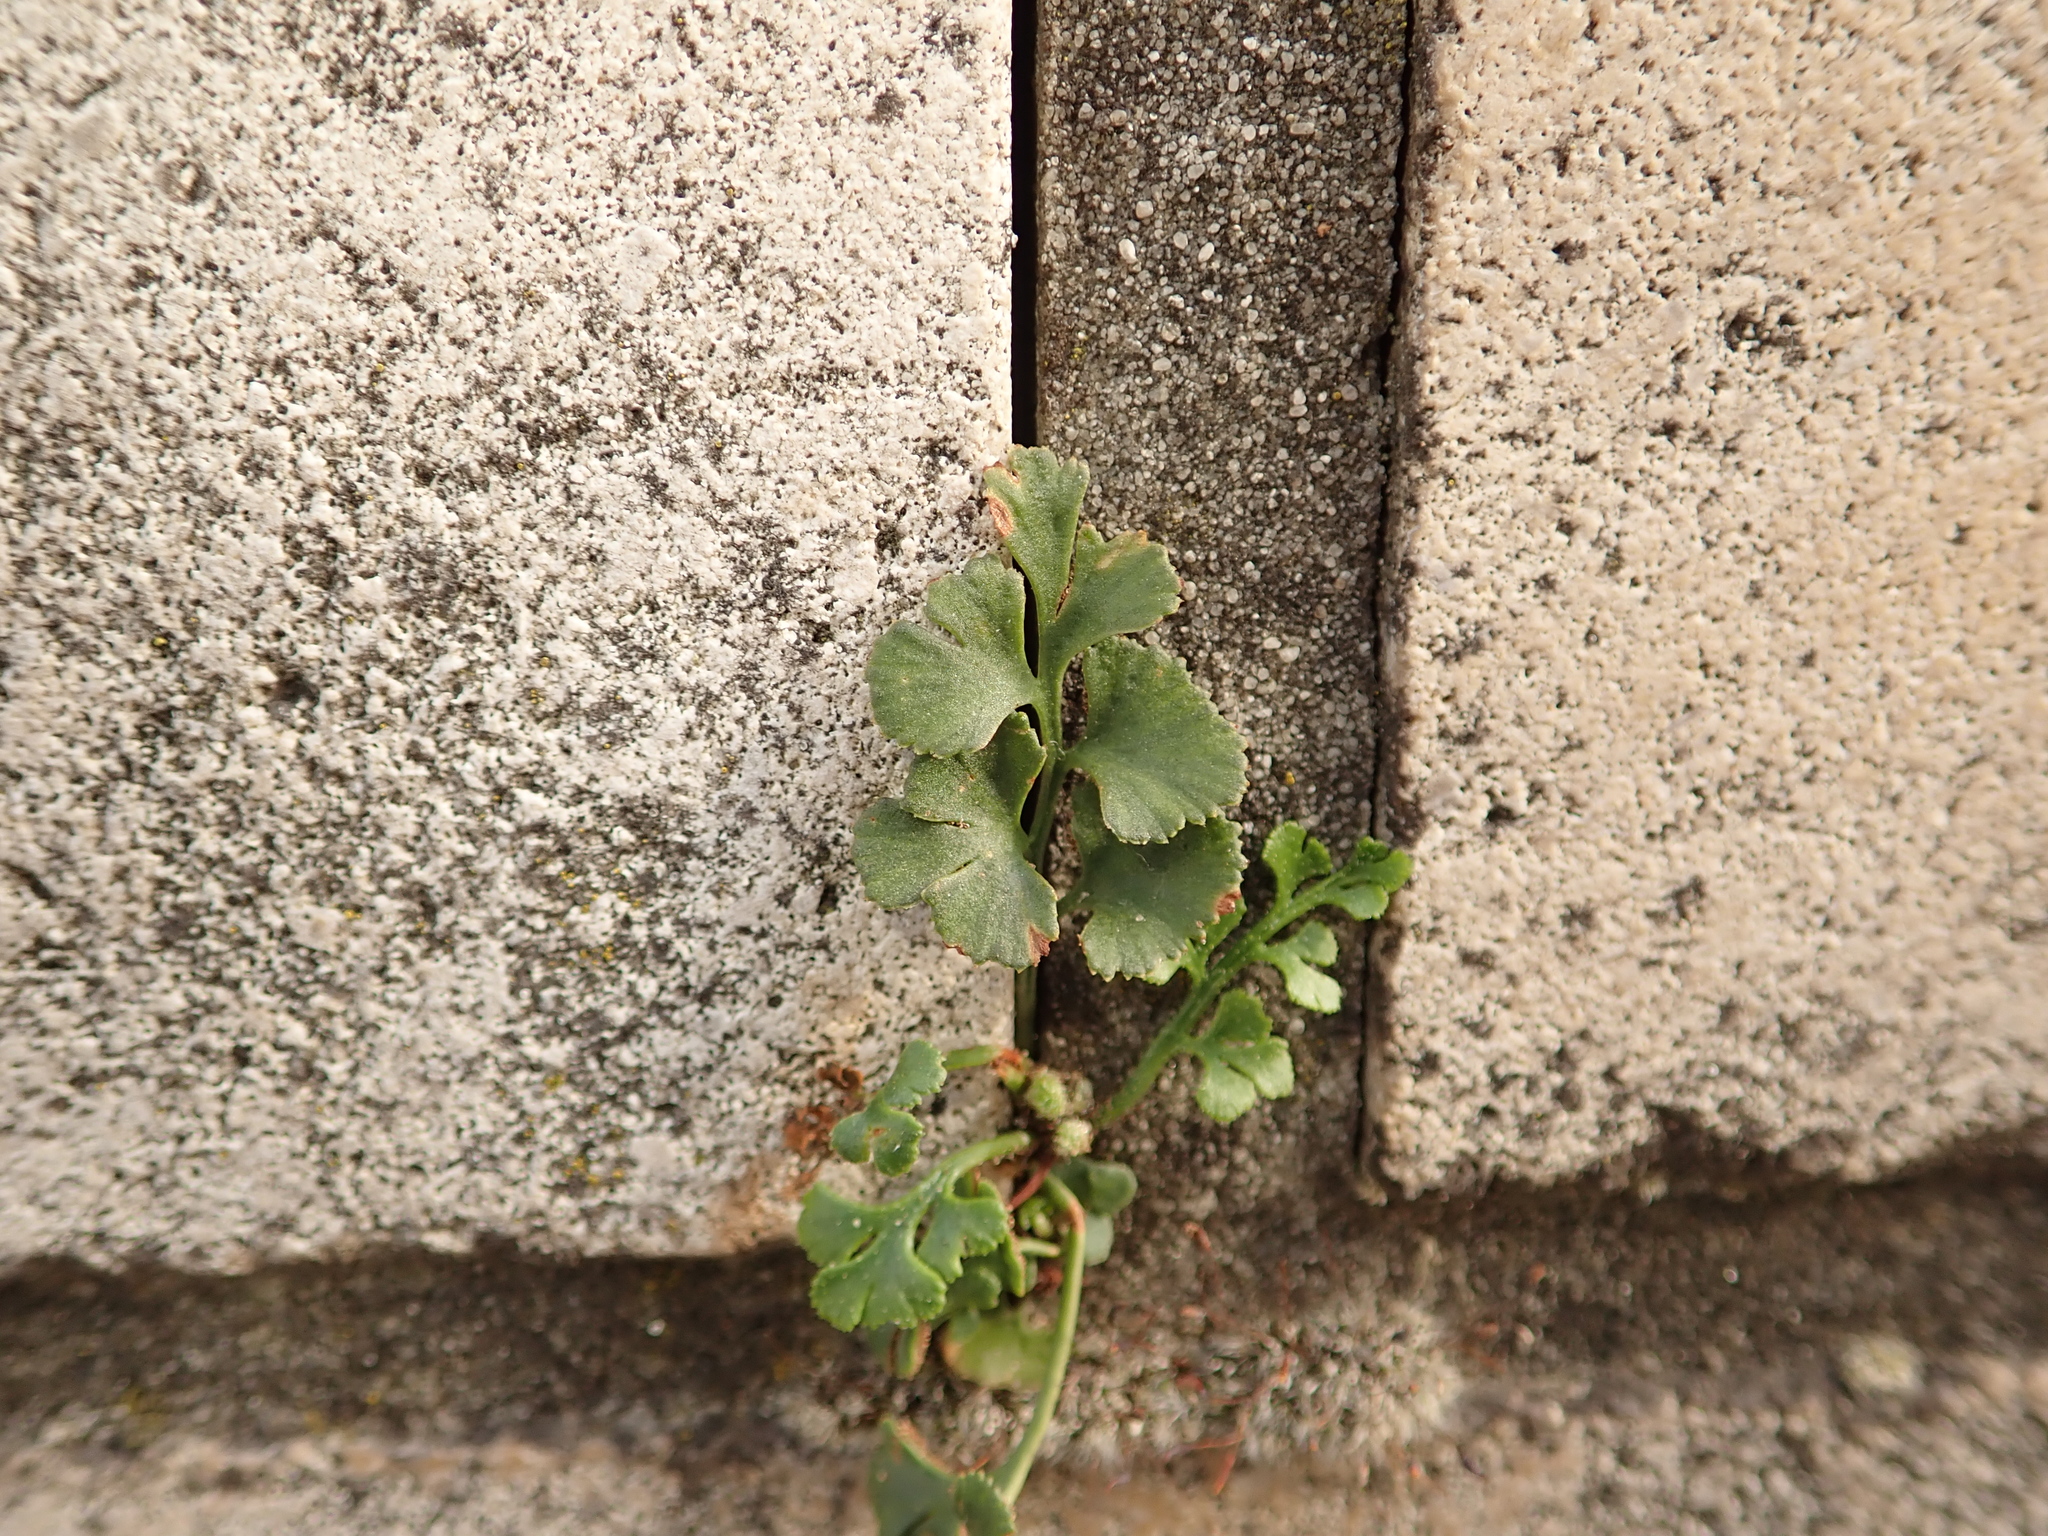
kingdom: Plantae
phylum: Tracheophyta
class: Polypodiopsida
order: Polypodiales
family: Aspleniaceae
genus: Asplenium
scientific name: Asplenium ruta-muraria
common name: Wall-rue
